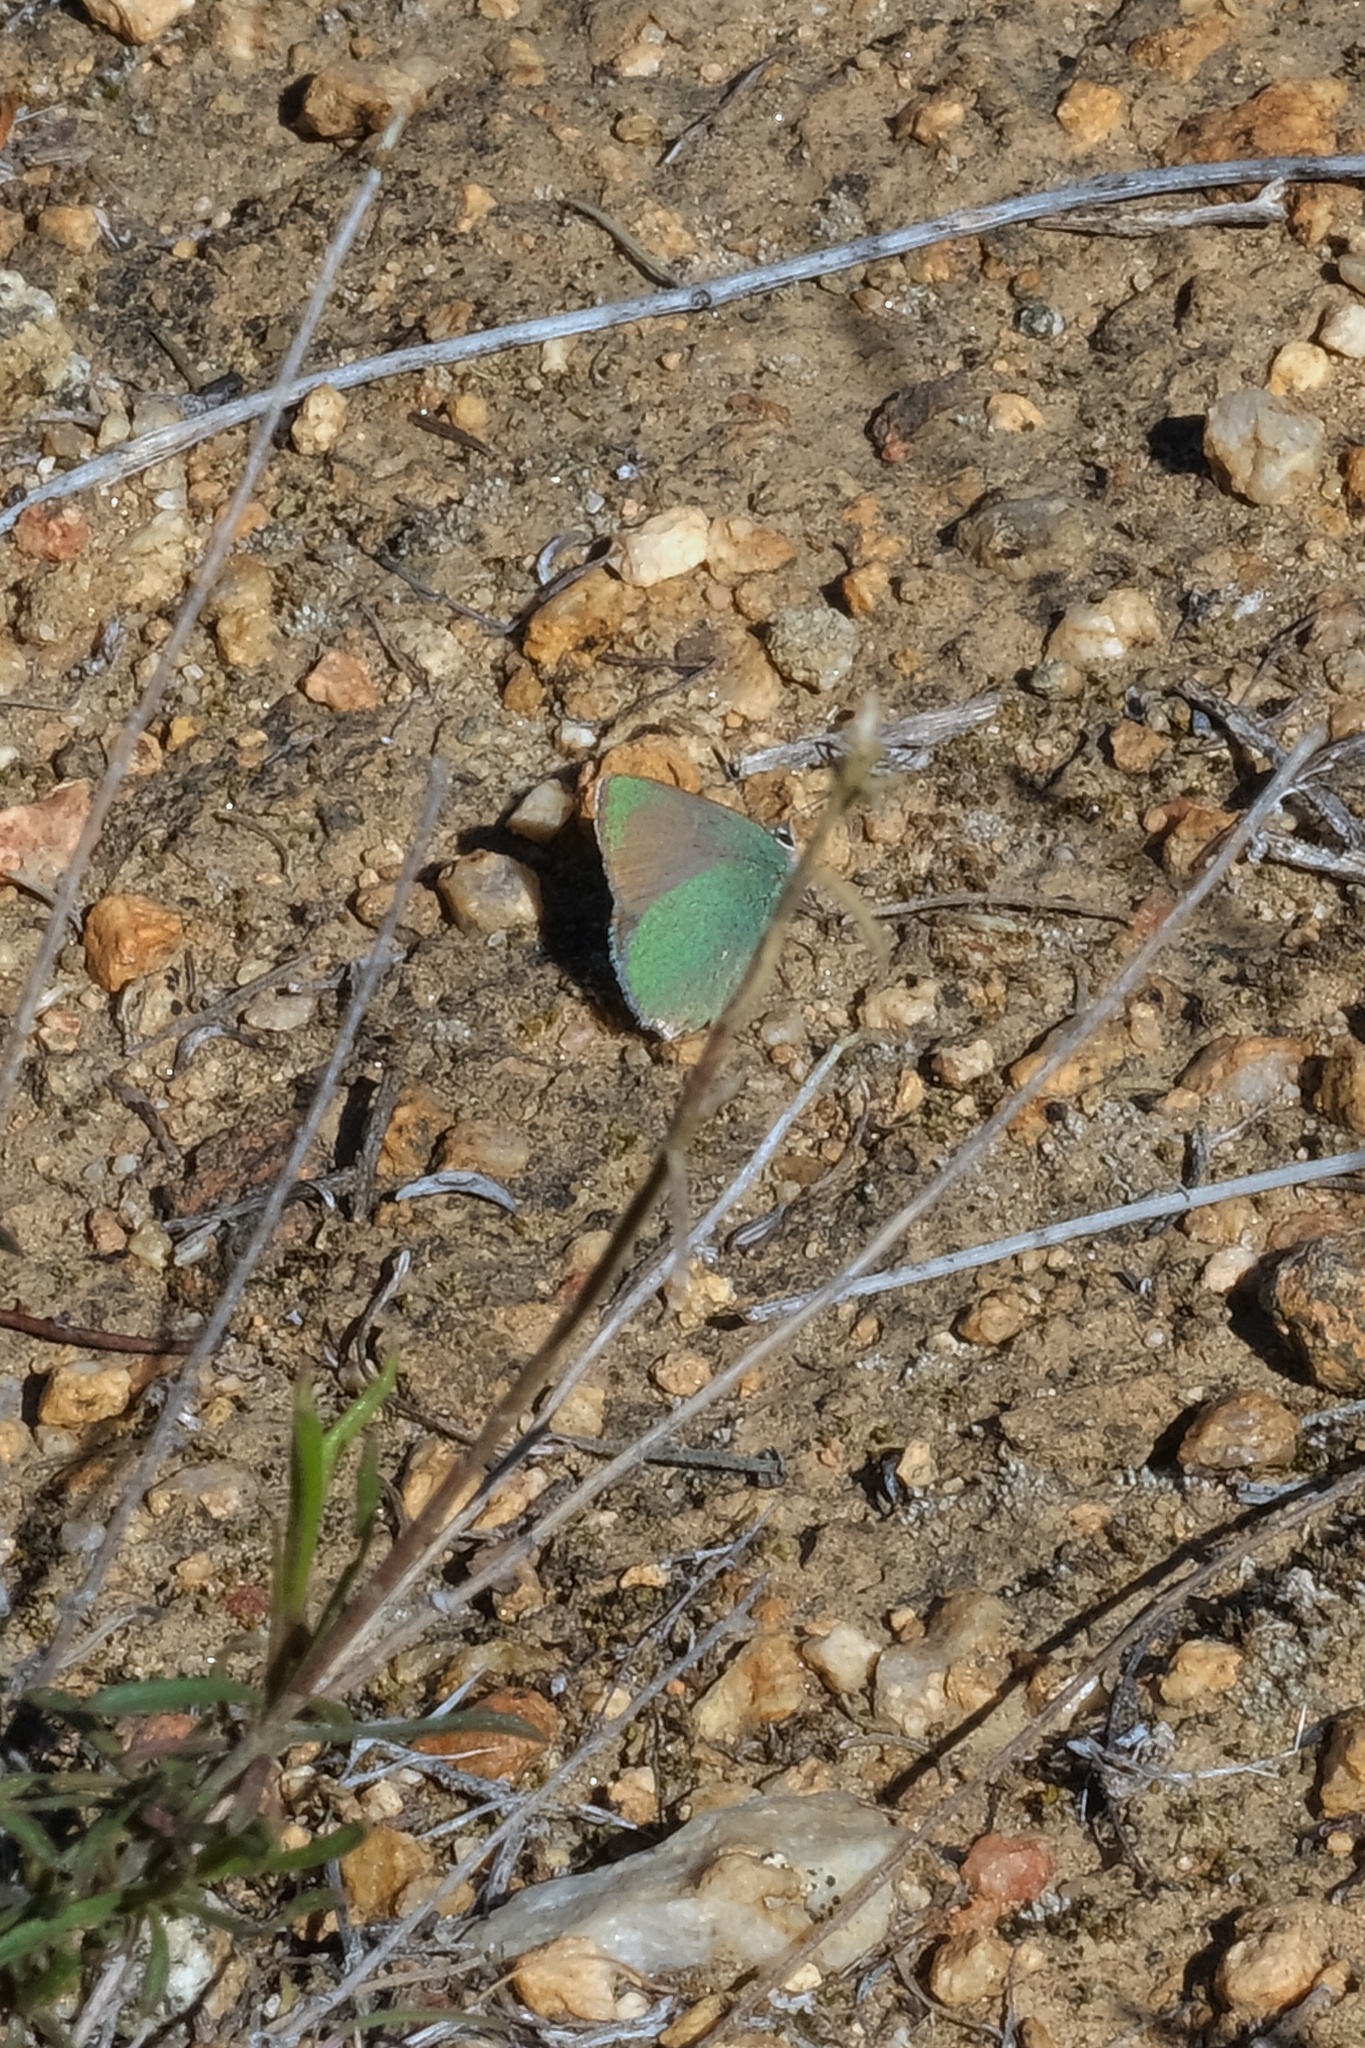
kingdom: Animalia
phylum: Arthropoda
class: Insecta
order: Lepidoptera
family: Lycaenidae
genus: Callophrys
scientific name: Callophrys dumetorum
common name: Bramble hairstreak
